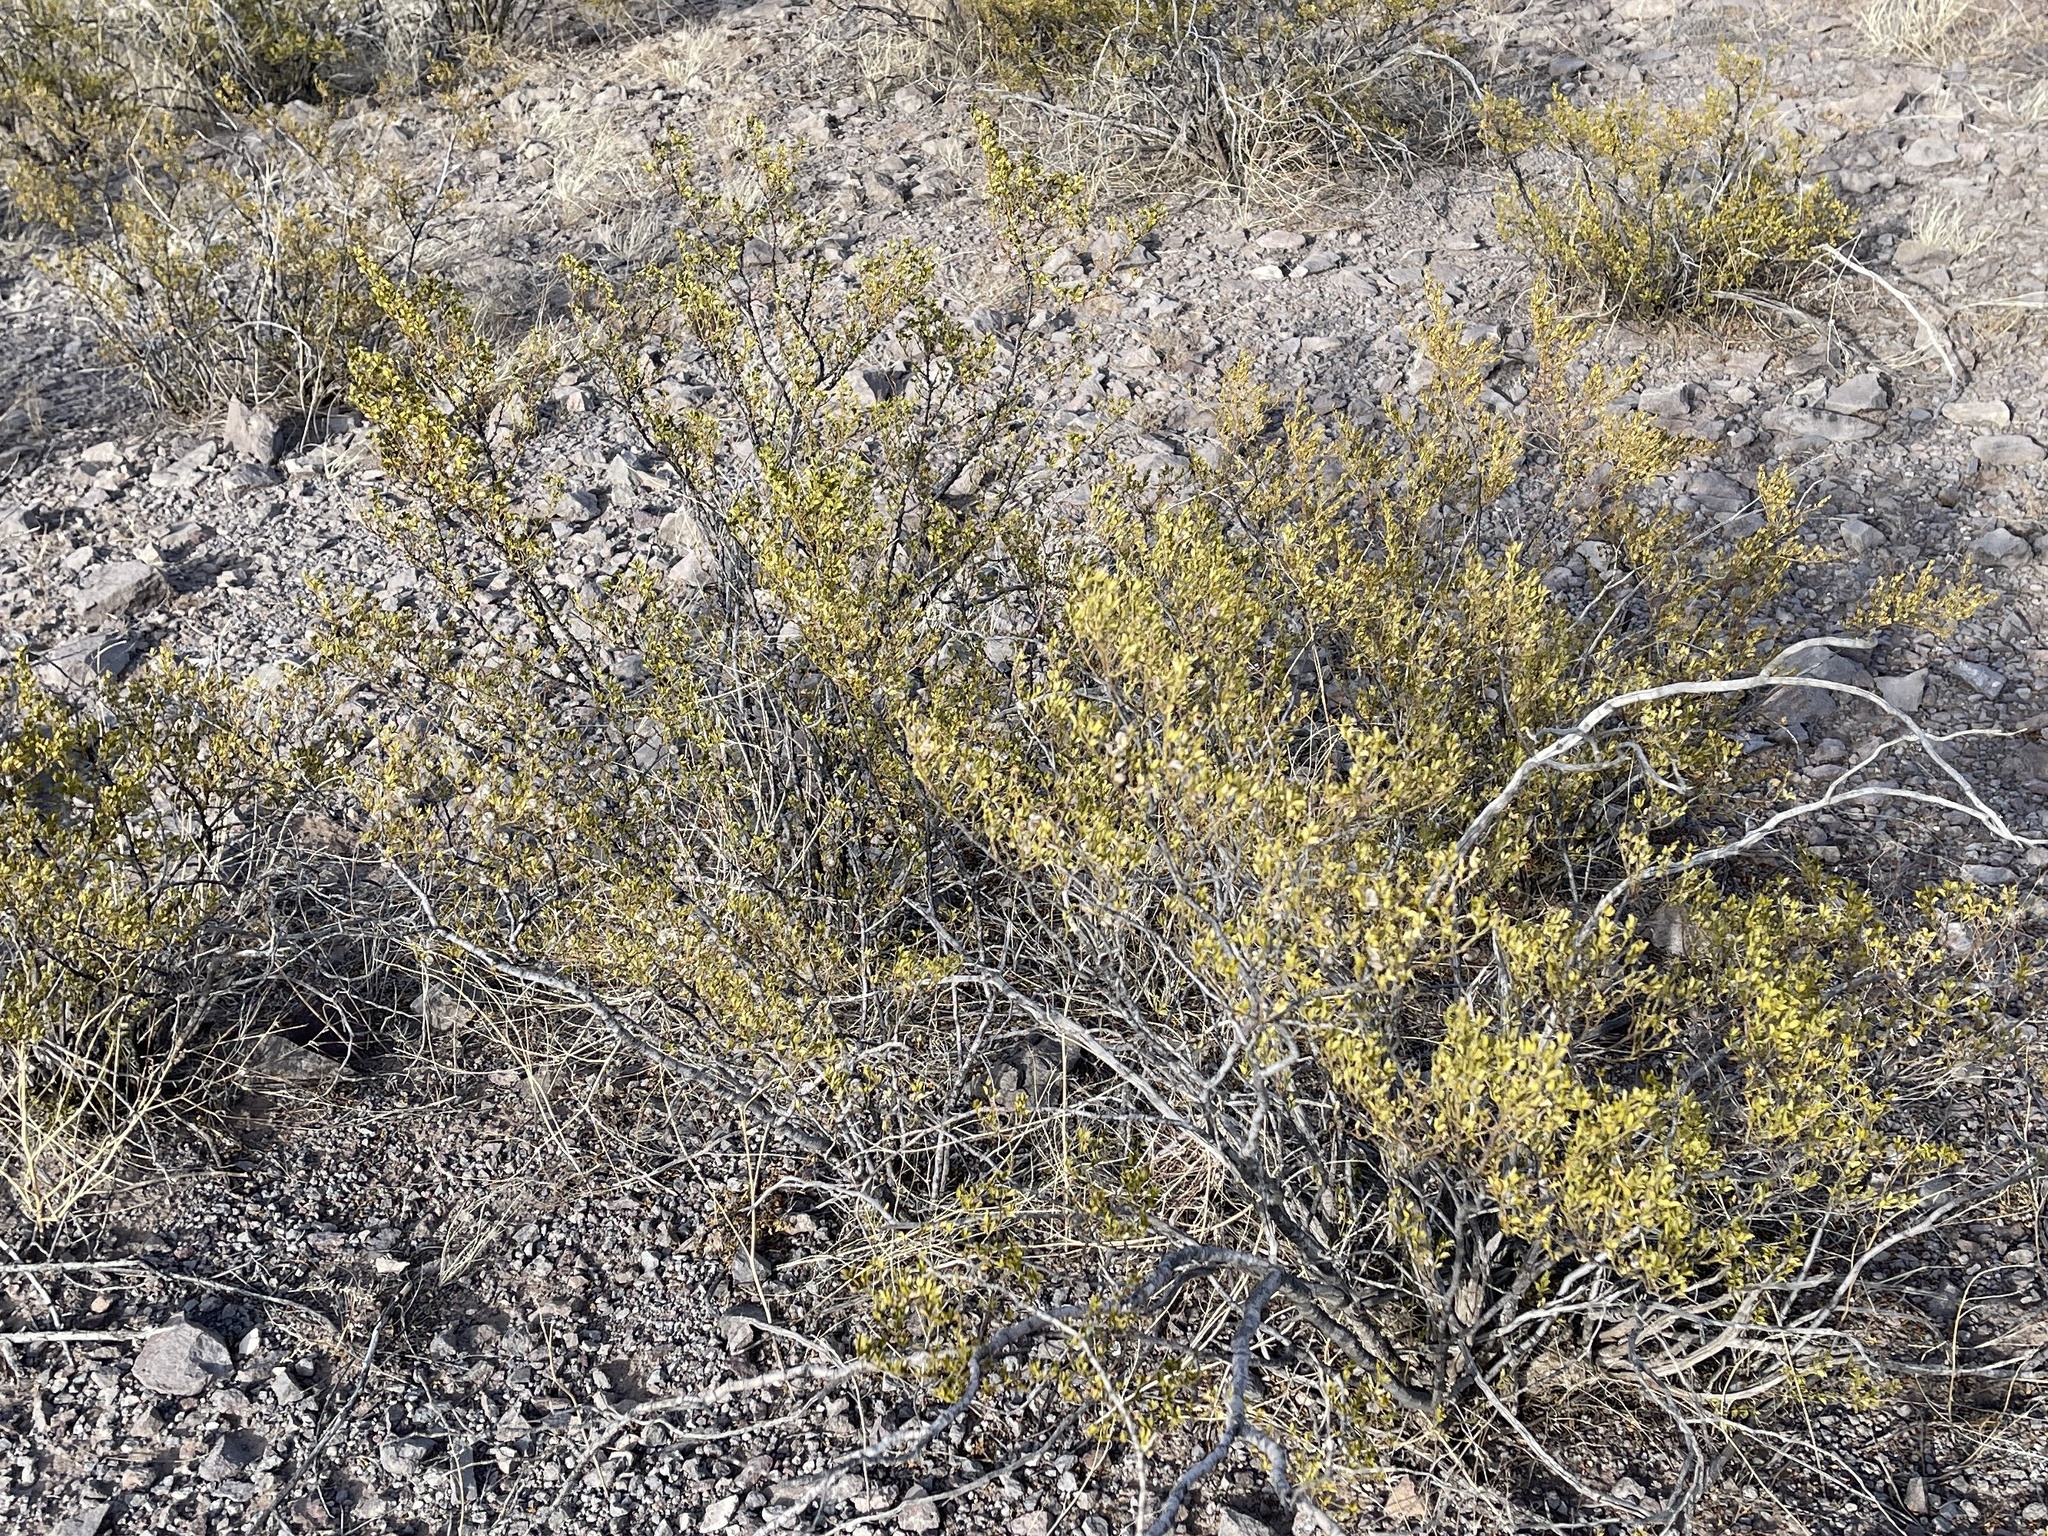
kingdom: Plantae
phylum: Tracheophyta
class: Magnoliopsida
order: Zygophyllales
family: Zygophyllaceae
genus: Larrea
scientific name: Larrea tridentata
